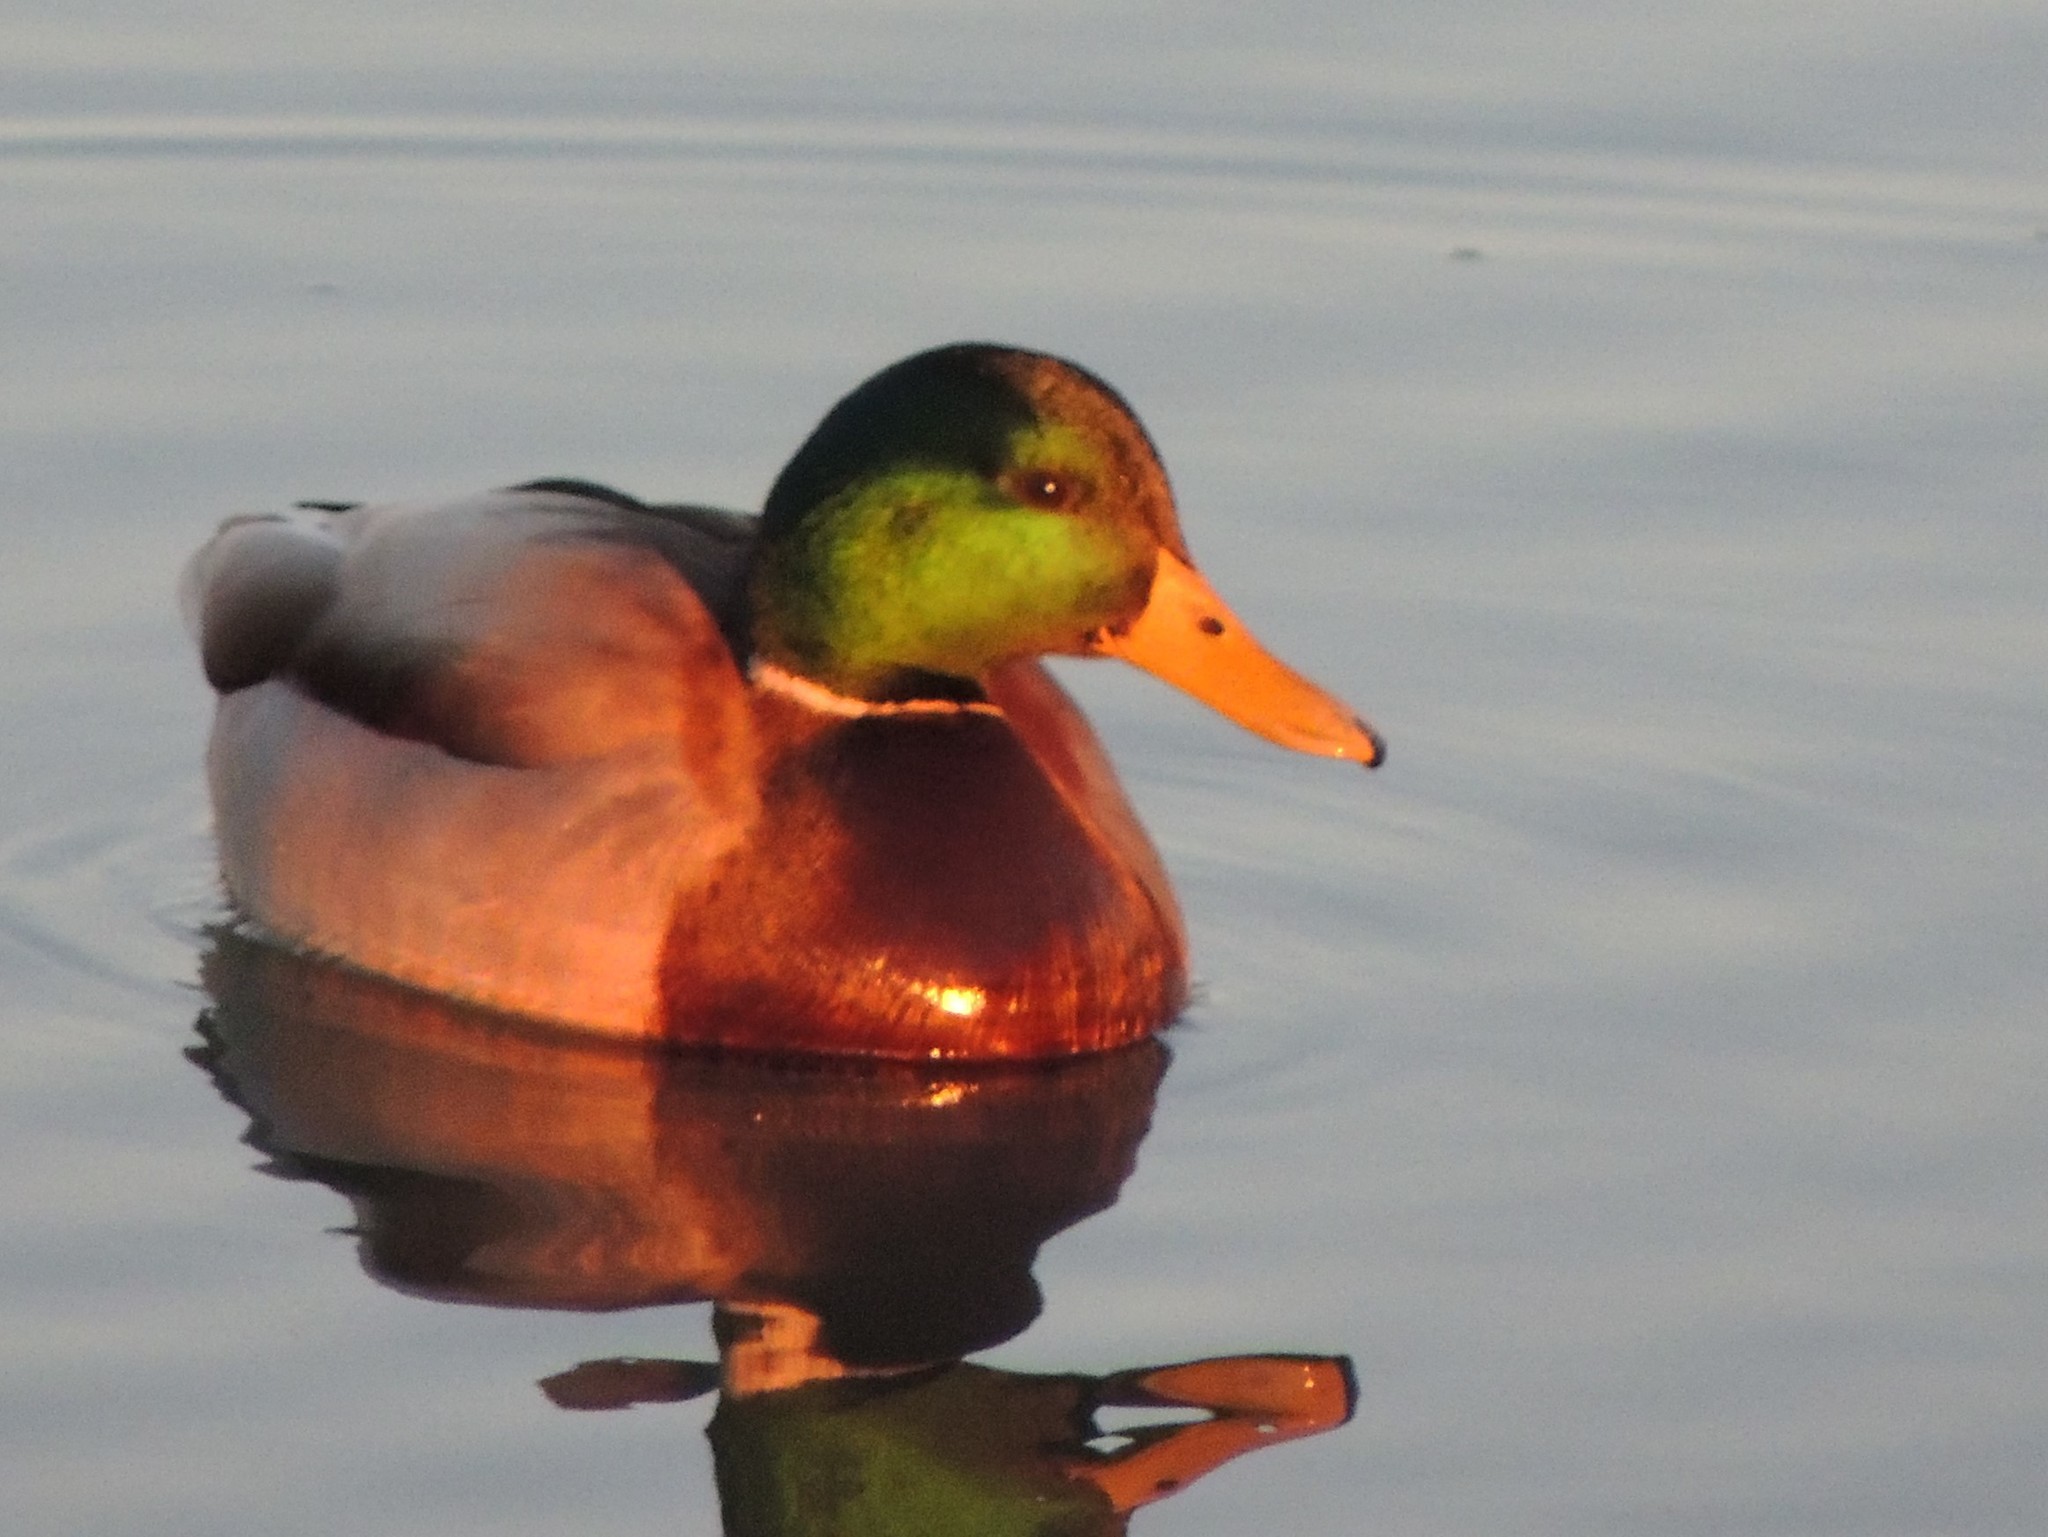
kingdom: Animalia
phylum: Chordata
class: Aves
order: Anseriformes
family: Anatidae
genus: Anas
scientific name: Anas platyrhynchos
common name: Mallard
